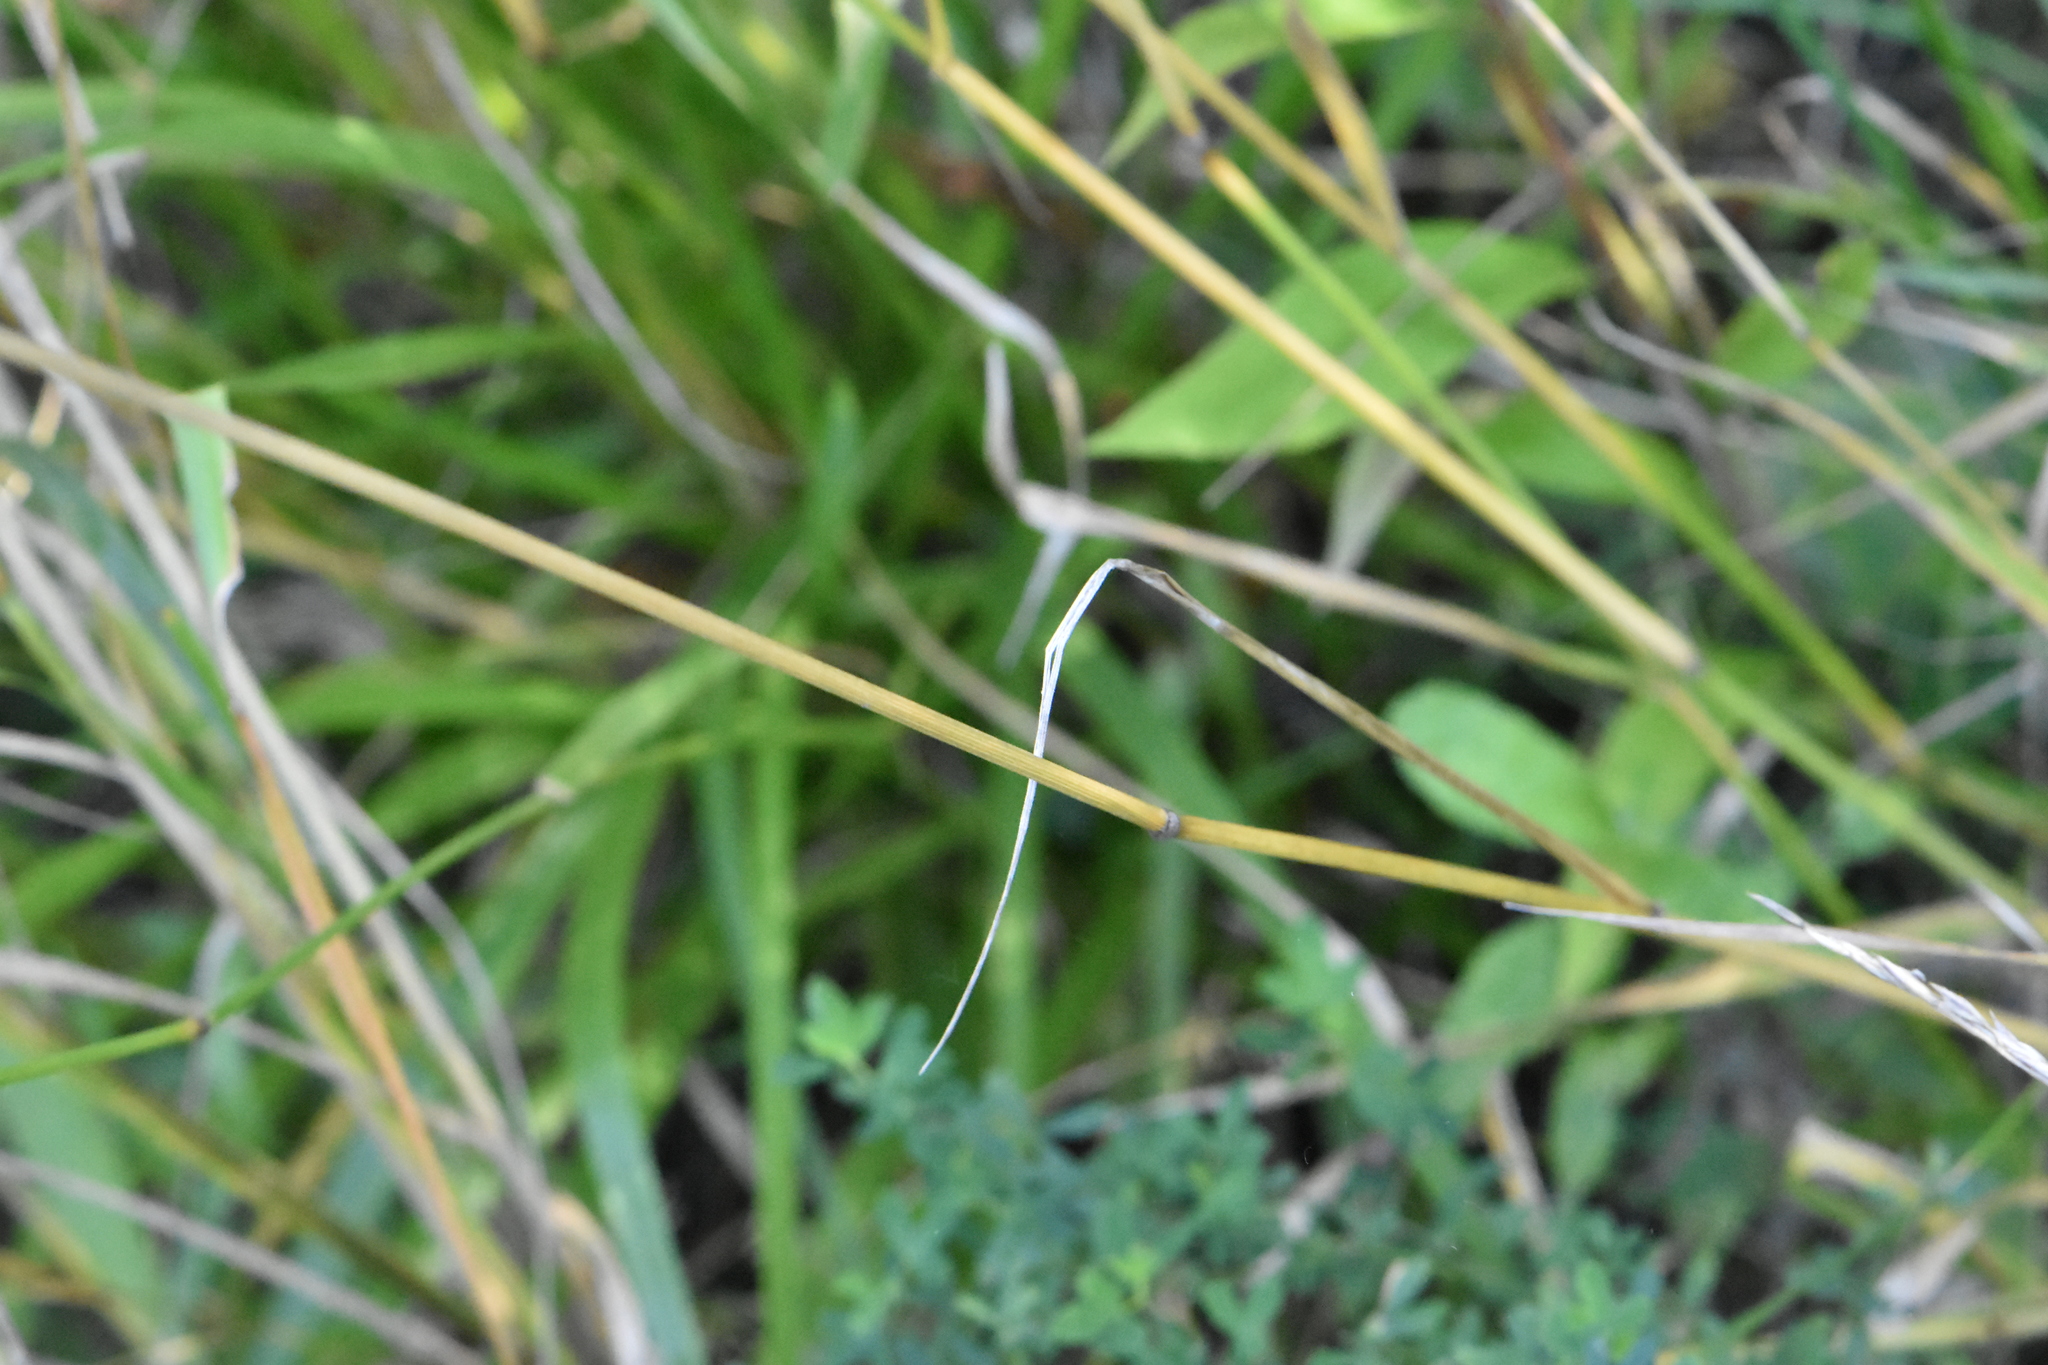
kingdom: Plantae
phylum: Tracheophyta
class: Liliopsida
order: Poales
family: Poaceae
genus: Lolium
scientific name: Lolium arundinaceum
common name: Reed fescue
